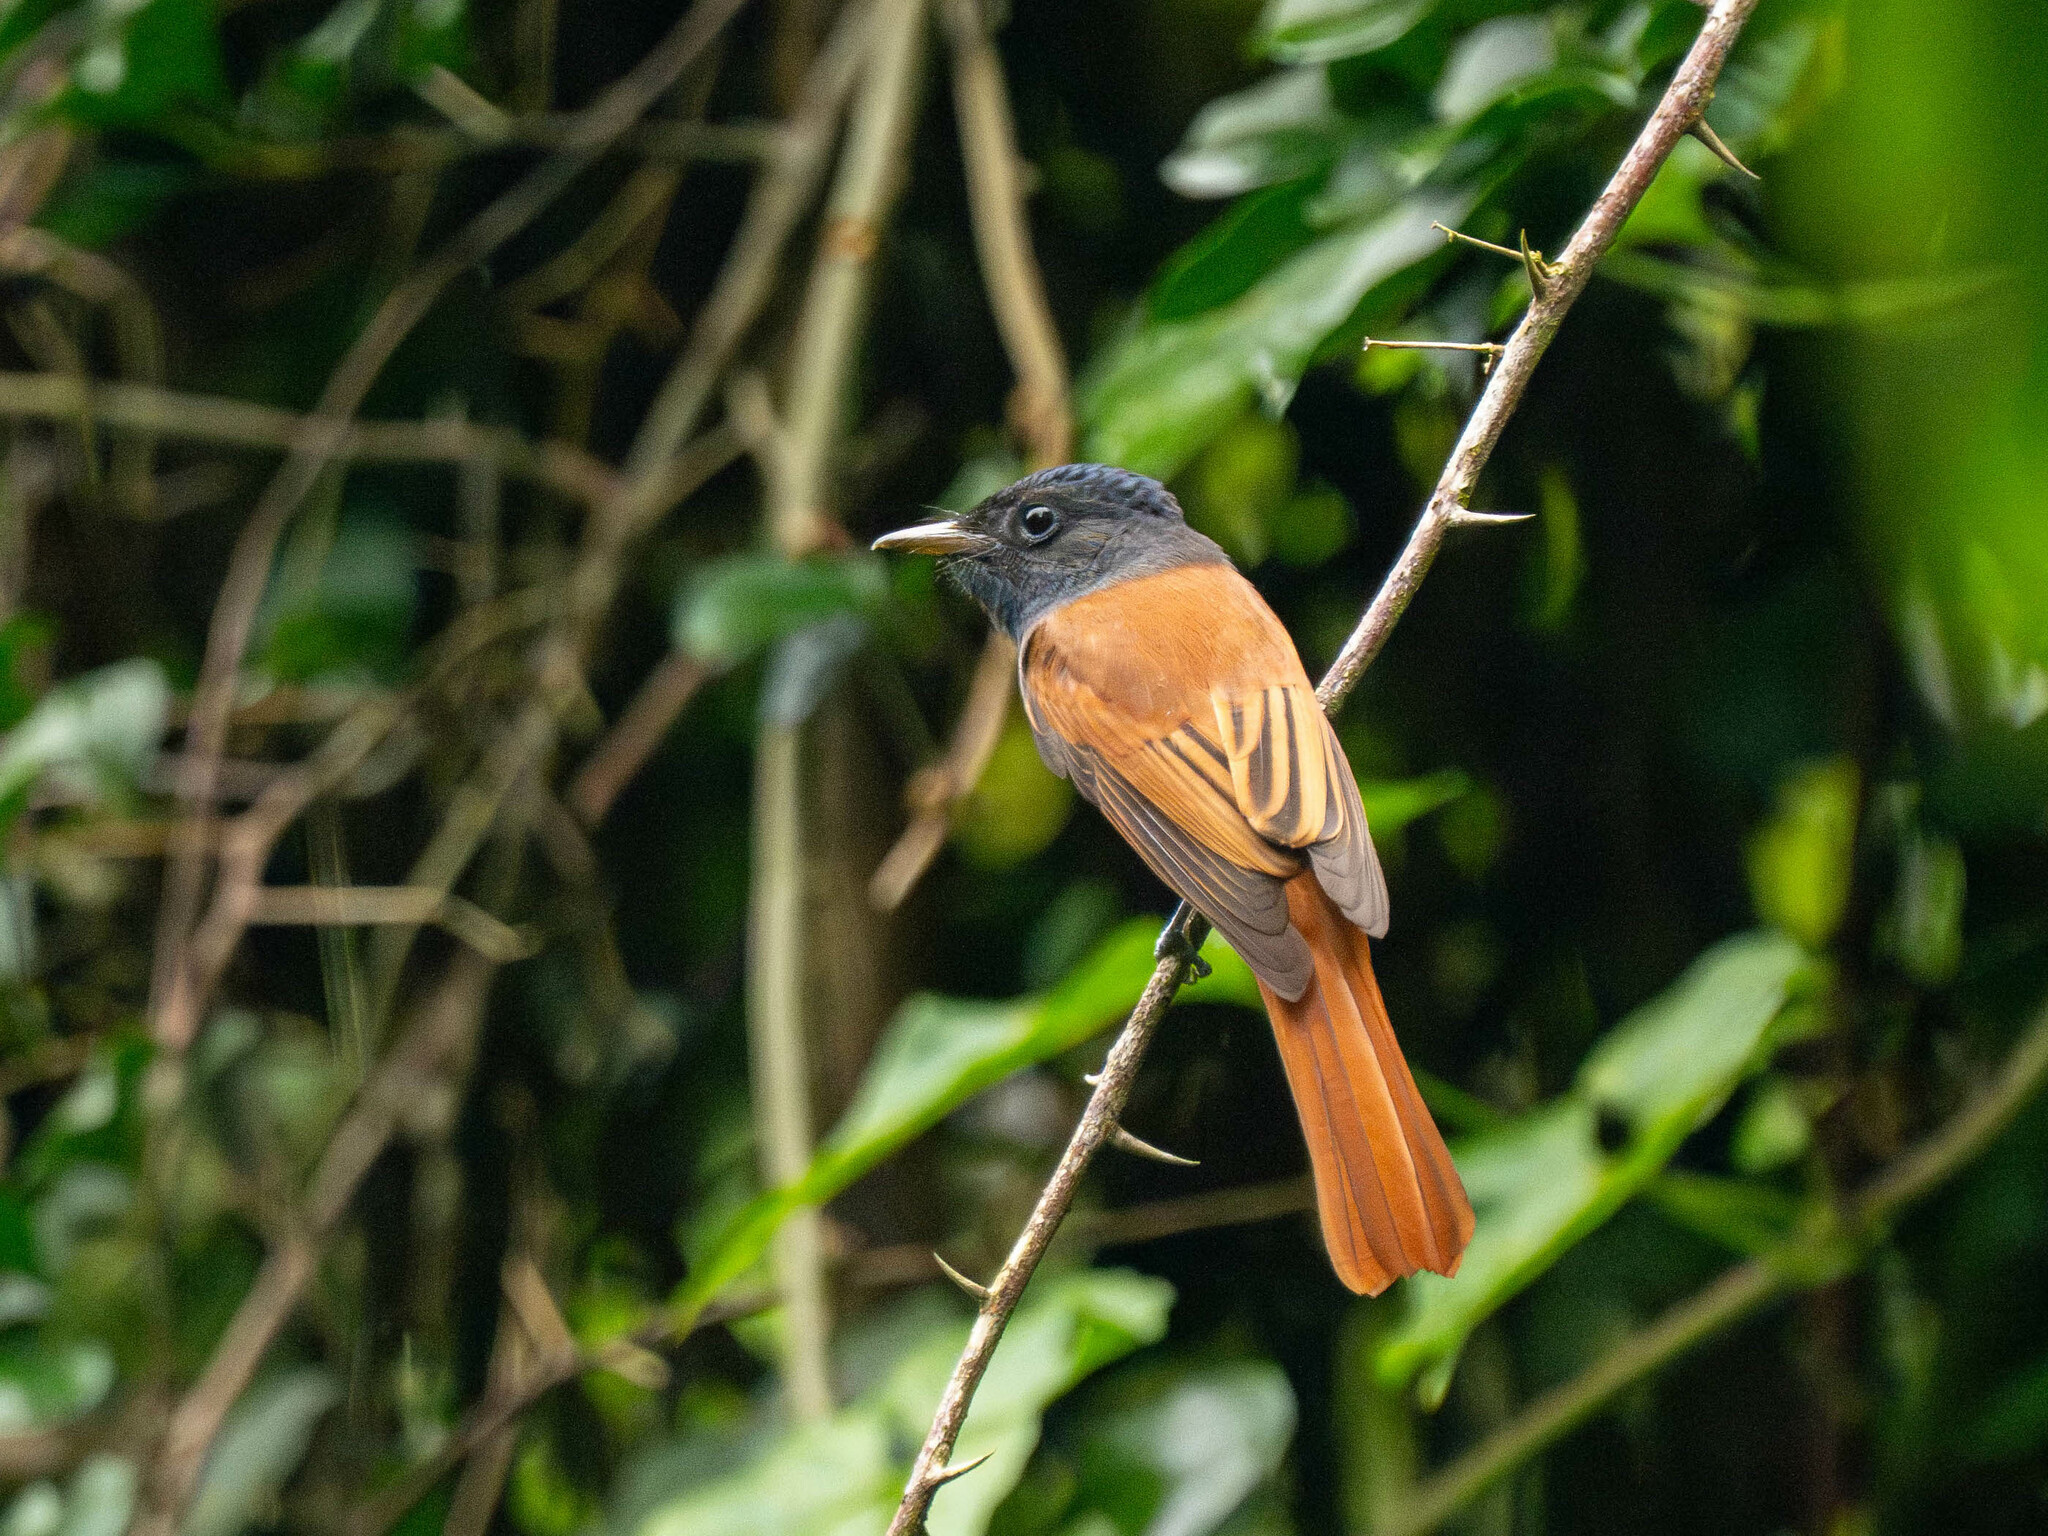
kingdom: Animalia
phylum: Chordata
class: Aves
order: Passeriformes
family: Monarchidae
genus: Terpsiphone
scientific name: Terpsiphone paradisi
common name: Indian paradise flycatcher
